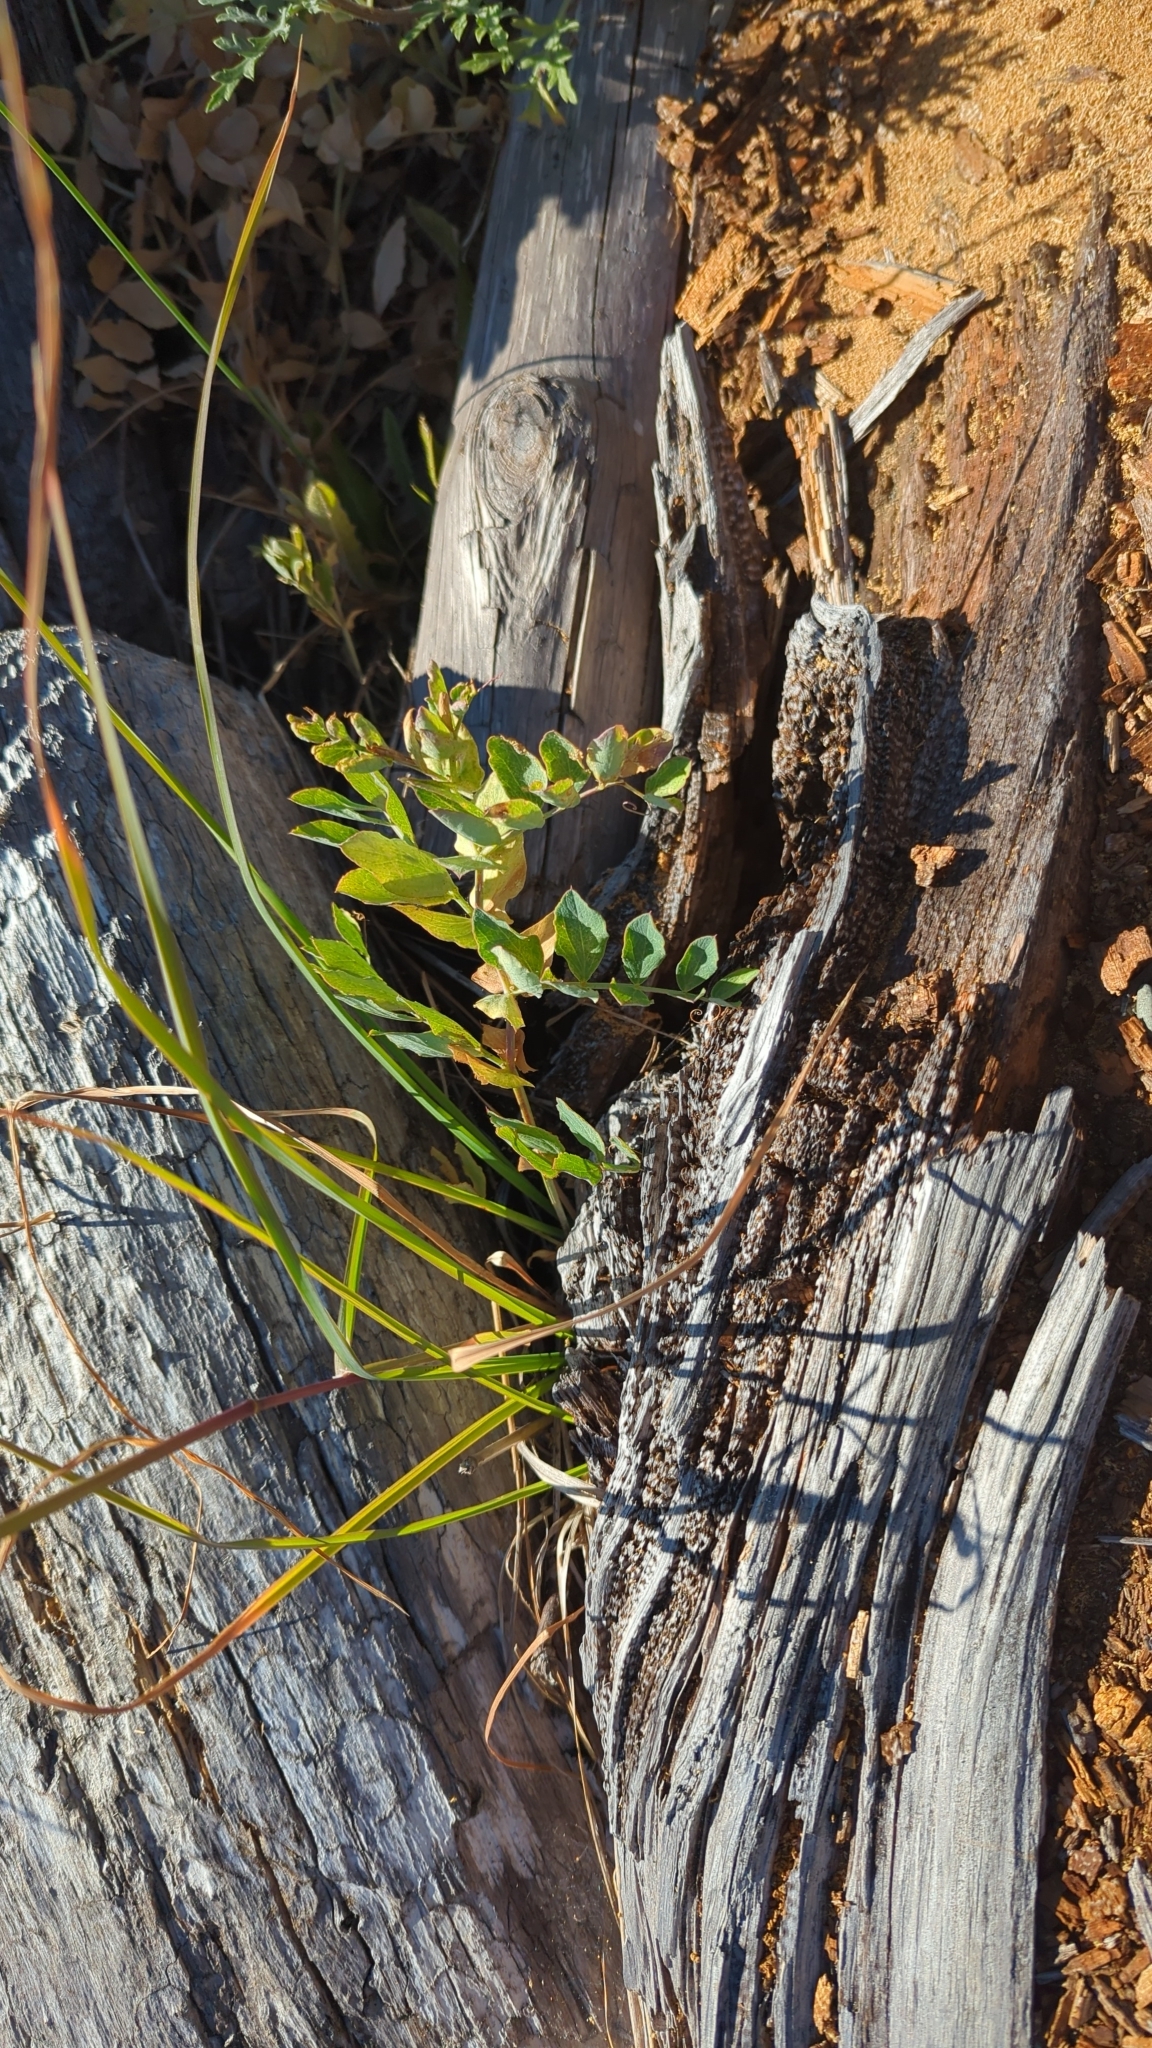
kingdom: Plantae
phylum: Tracheophyta
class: Magnoliopsida
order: Fabales
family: Fabaceae
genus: Lathyrus
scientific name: Lathyrus japonicus
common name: Sea pea
